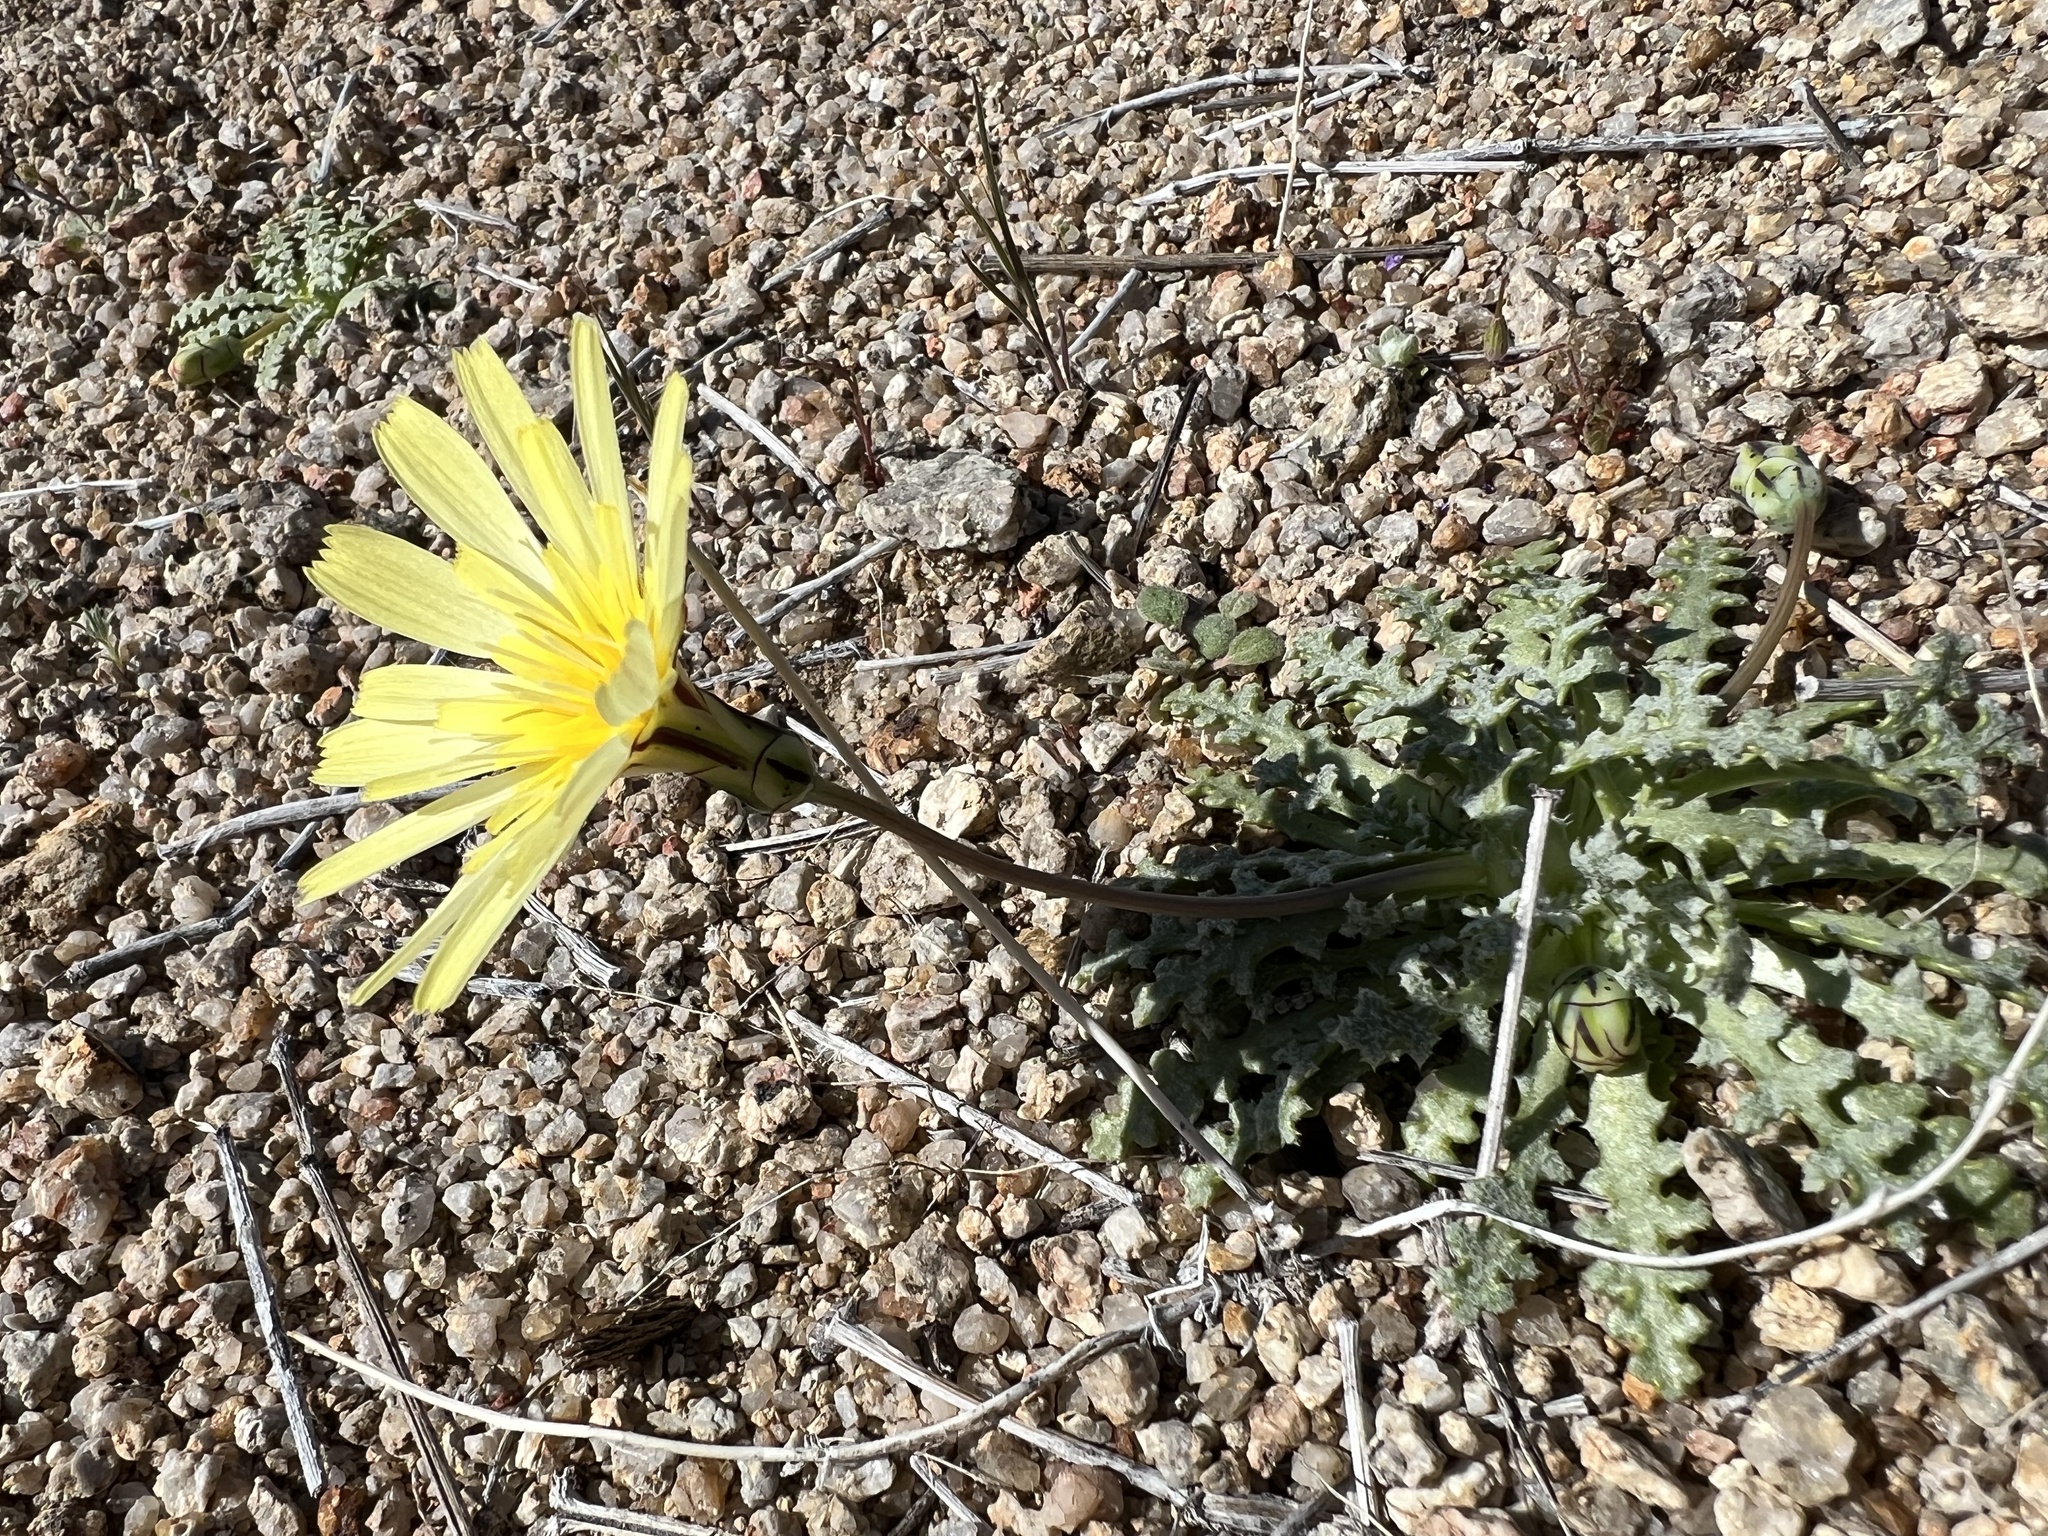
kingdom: Plantae
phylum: Tracheophyta
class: Magnoliopsida
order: Asterales
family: Asteraceae
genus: Anisocoma
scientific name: Anisocoma acaulis
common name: Scalebud
